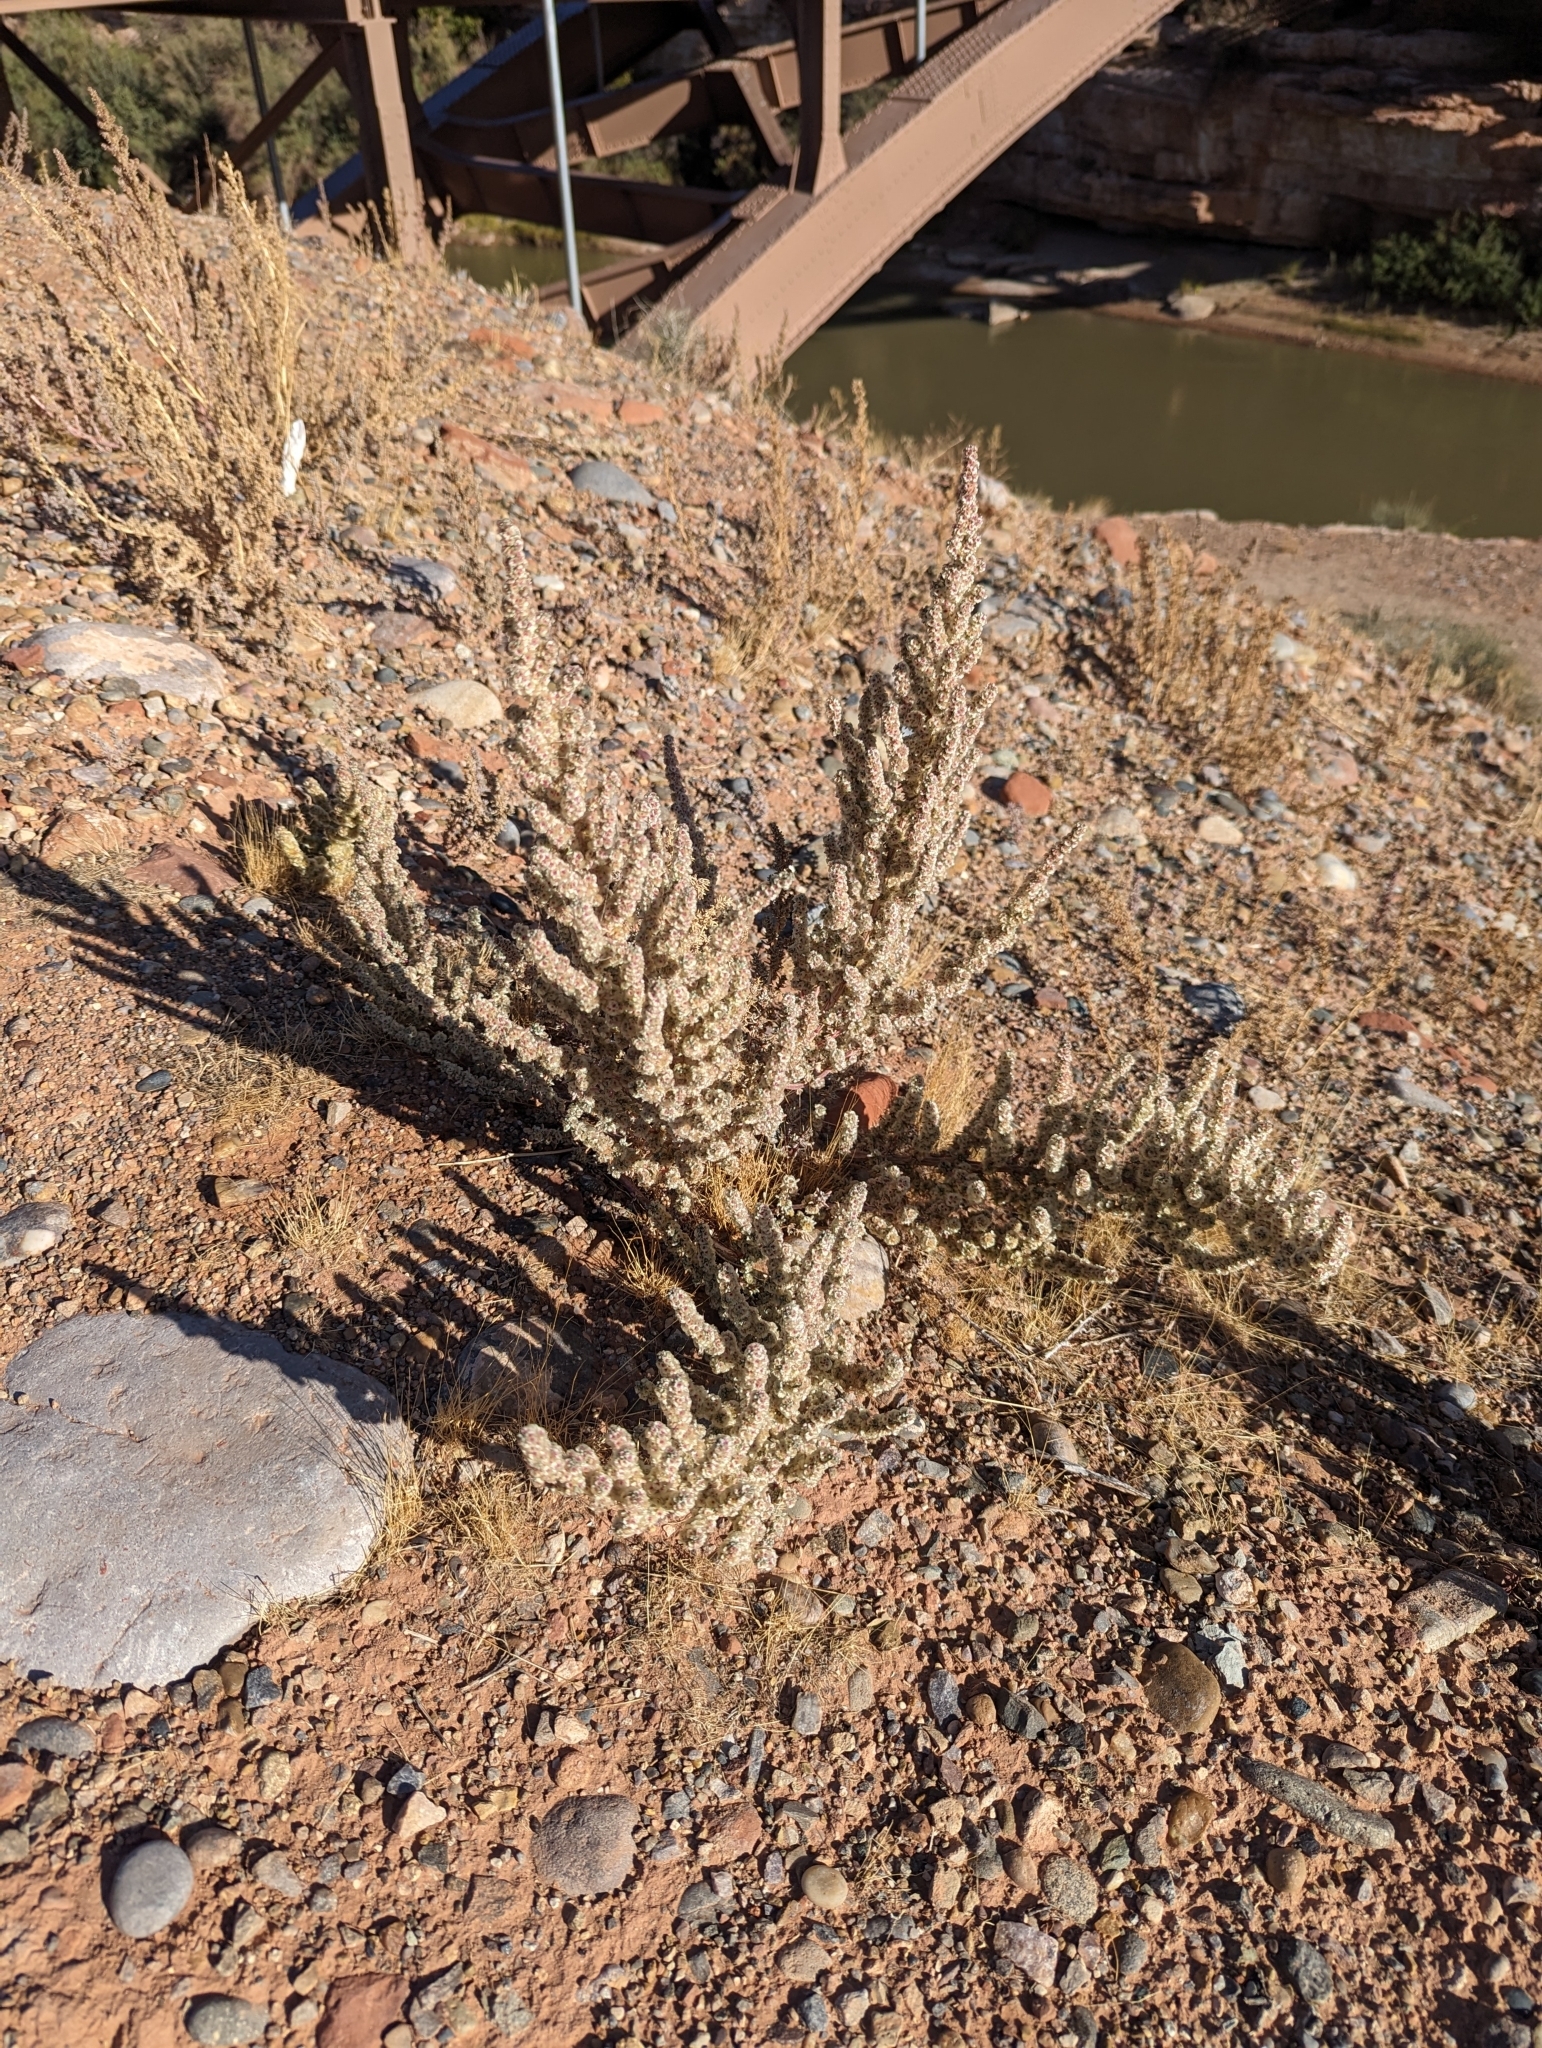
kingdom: Plantae
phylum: Tracheophyta
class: Magnoliopsida
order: Caryophyllales
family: Amaranthaceae
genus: Halogeton
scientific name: Halogeton glomeratus
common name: Saltlover
